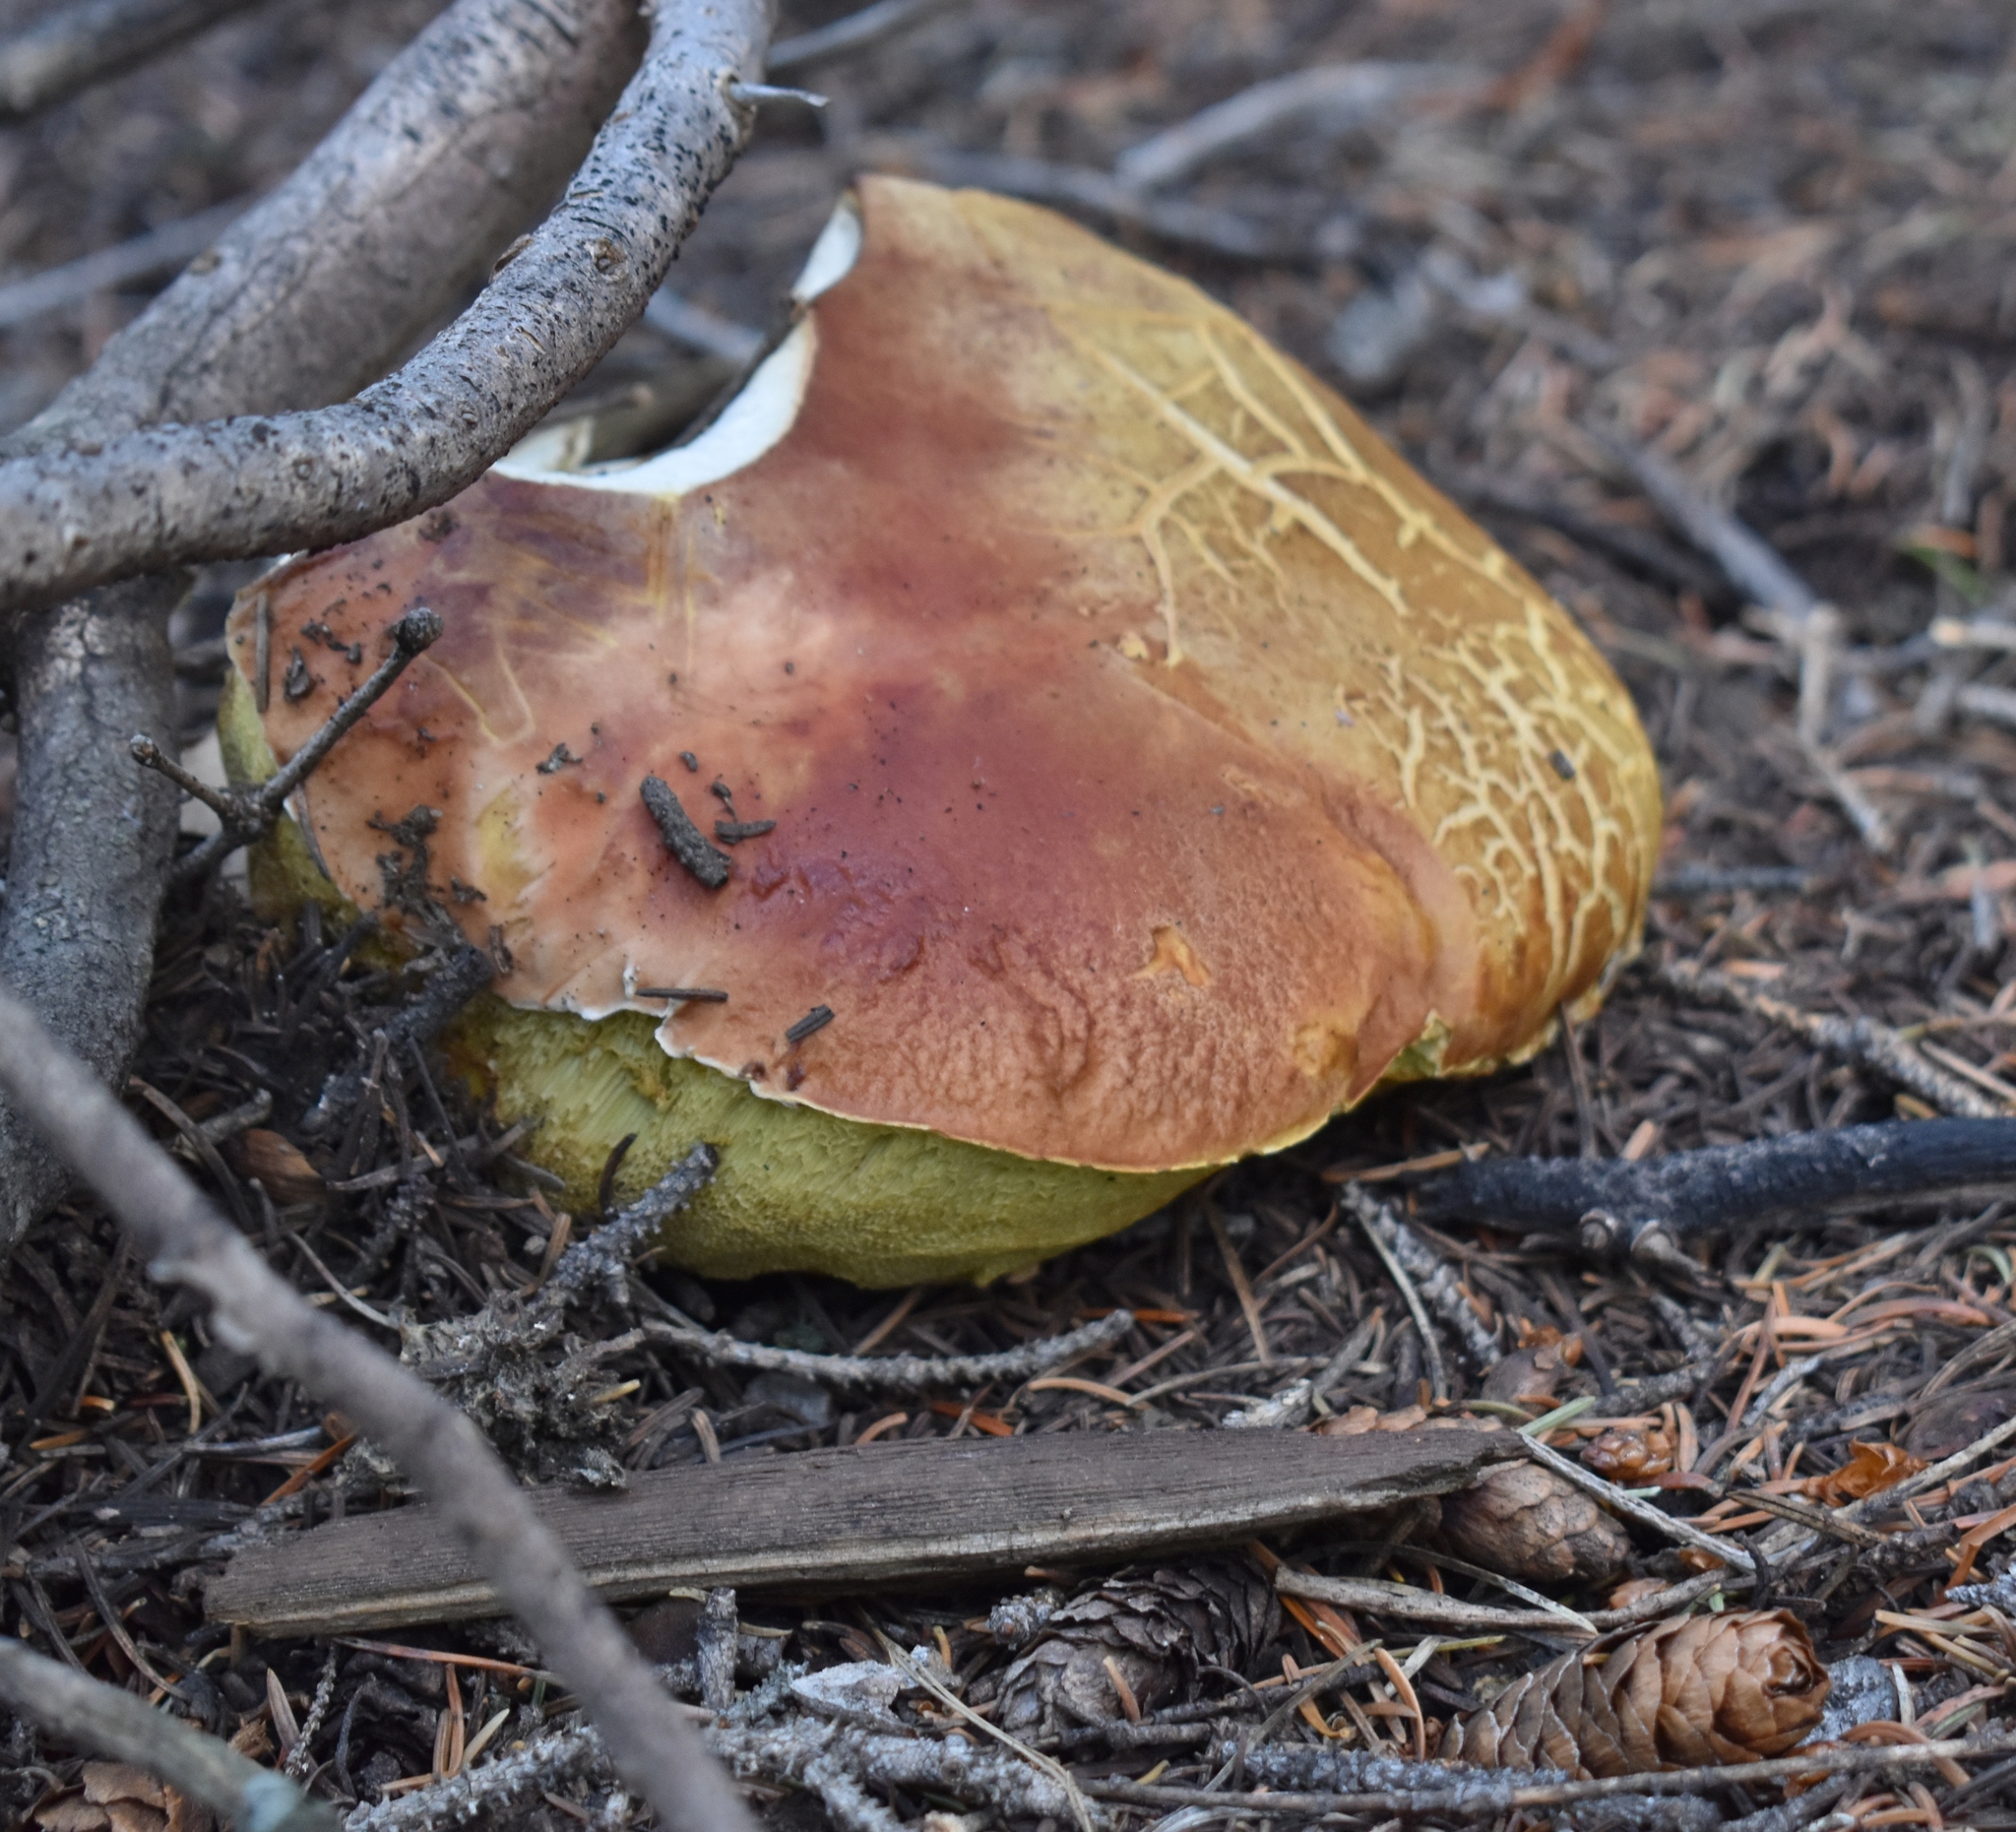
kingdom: Fungi
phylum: Basidiomycota
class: Agaricomycetes
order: Boletales
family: Boletaceae
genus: Boletus
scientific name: Boletus rubriceps
